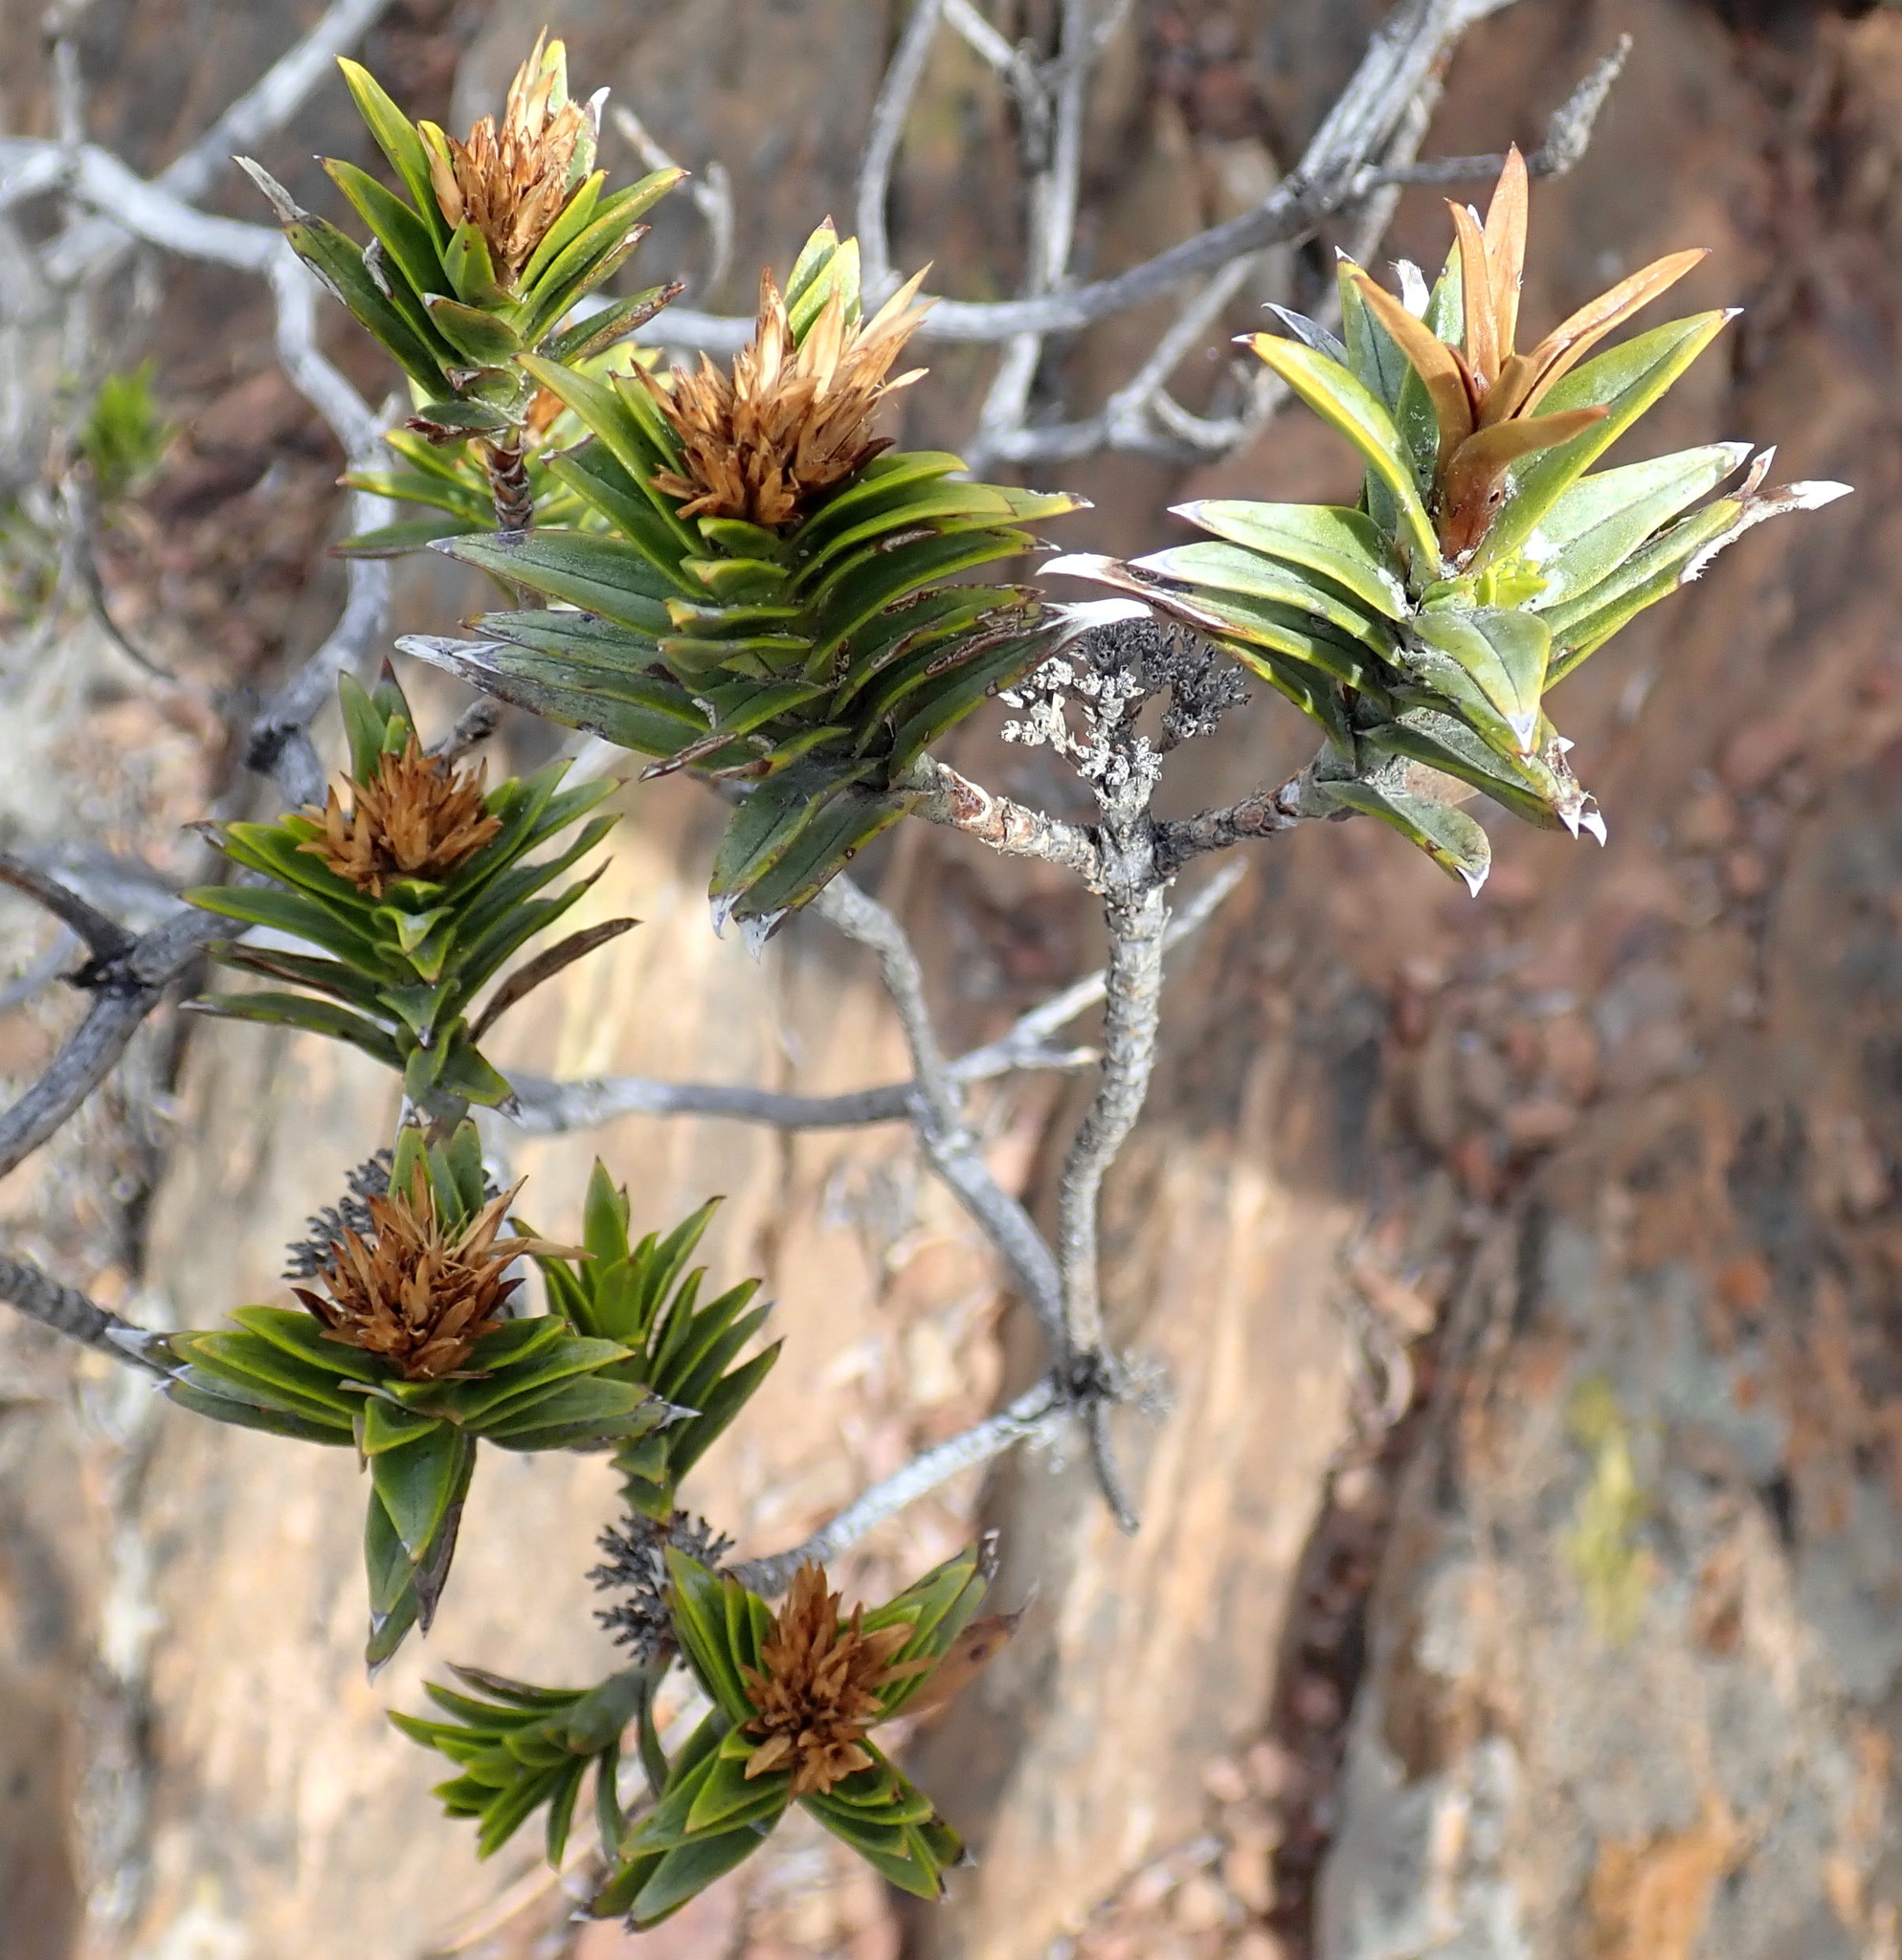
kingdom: Plantae
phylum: Tracheophyta
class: Magnoliopsida
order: Asterales
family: Asteraceae
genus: Pteronia
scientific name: Pteronia fasciculata
